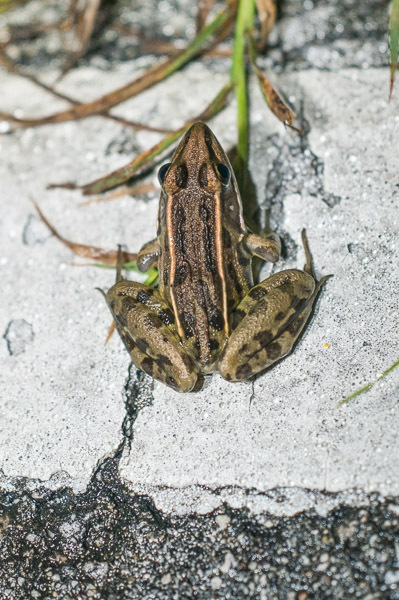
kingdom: Animalia
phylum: Chordata
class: Amphibia
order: Anura
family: Ranidae
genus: Lithobates
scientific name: Lithobates sphenocephalus
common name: Southern leopard frog
